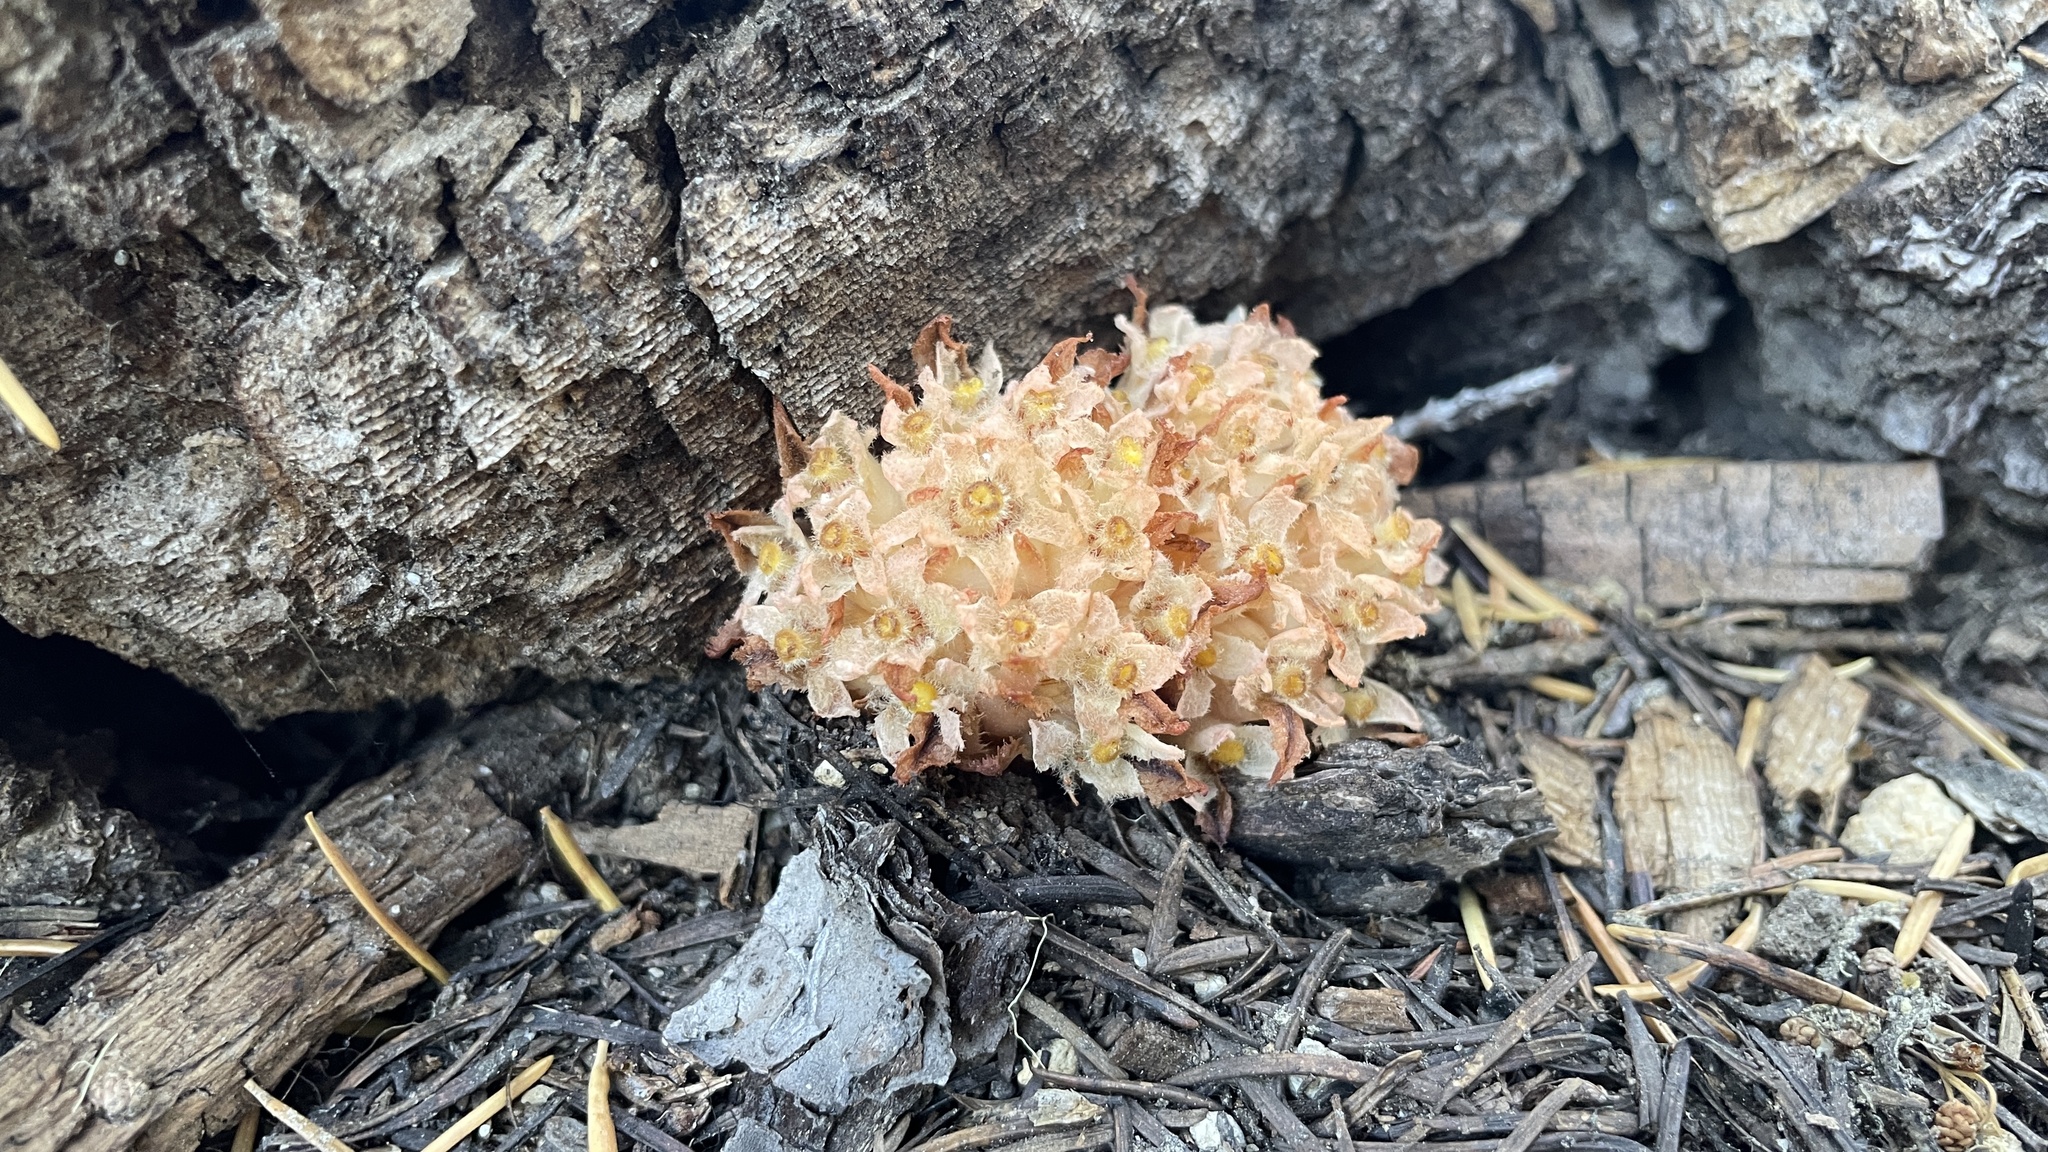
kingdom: Plantae
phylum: Tracheophyta
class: Magnoliopsida
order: Ericales
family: Ericaceae
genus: Hemitomes
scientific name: Hemitomes congestum
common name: Cone plant
